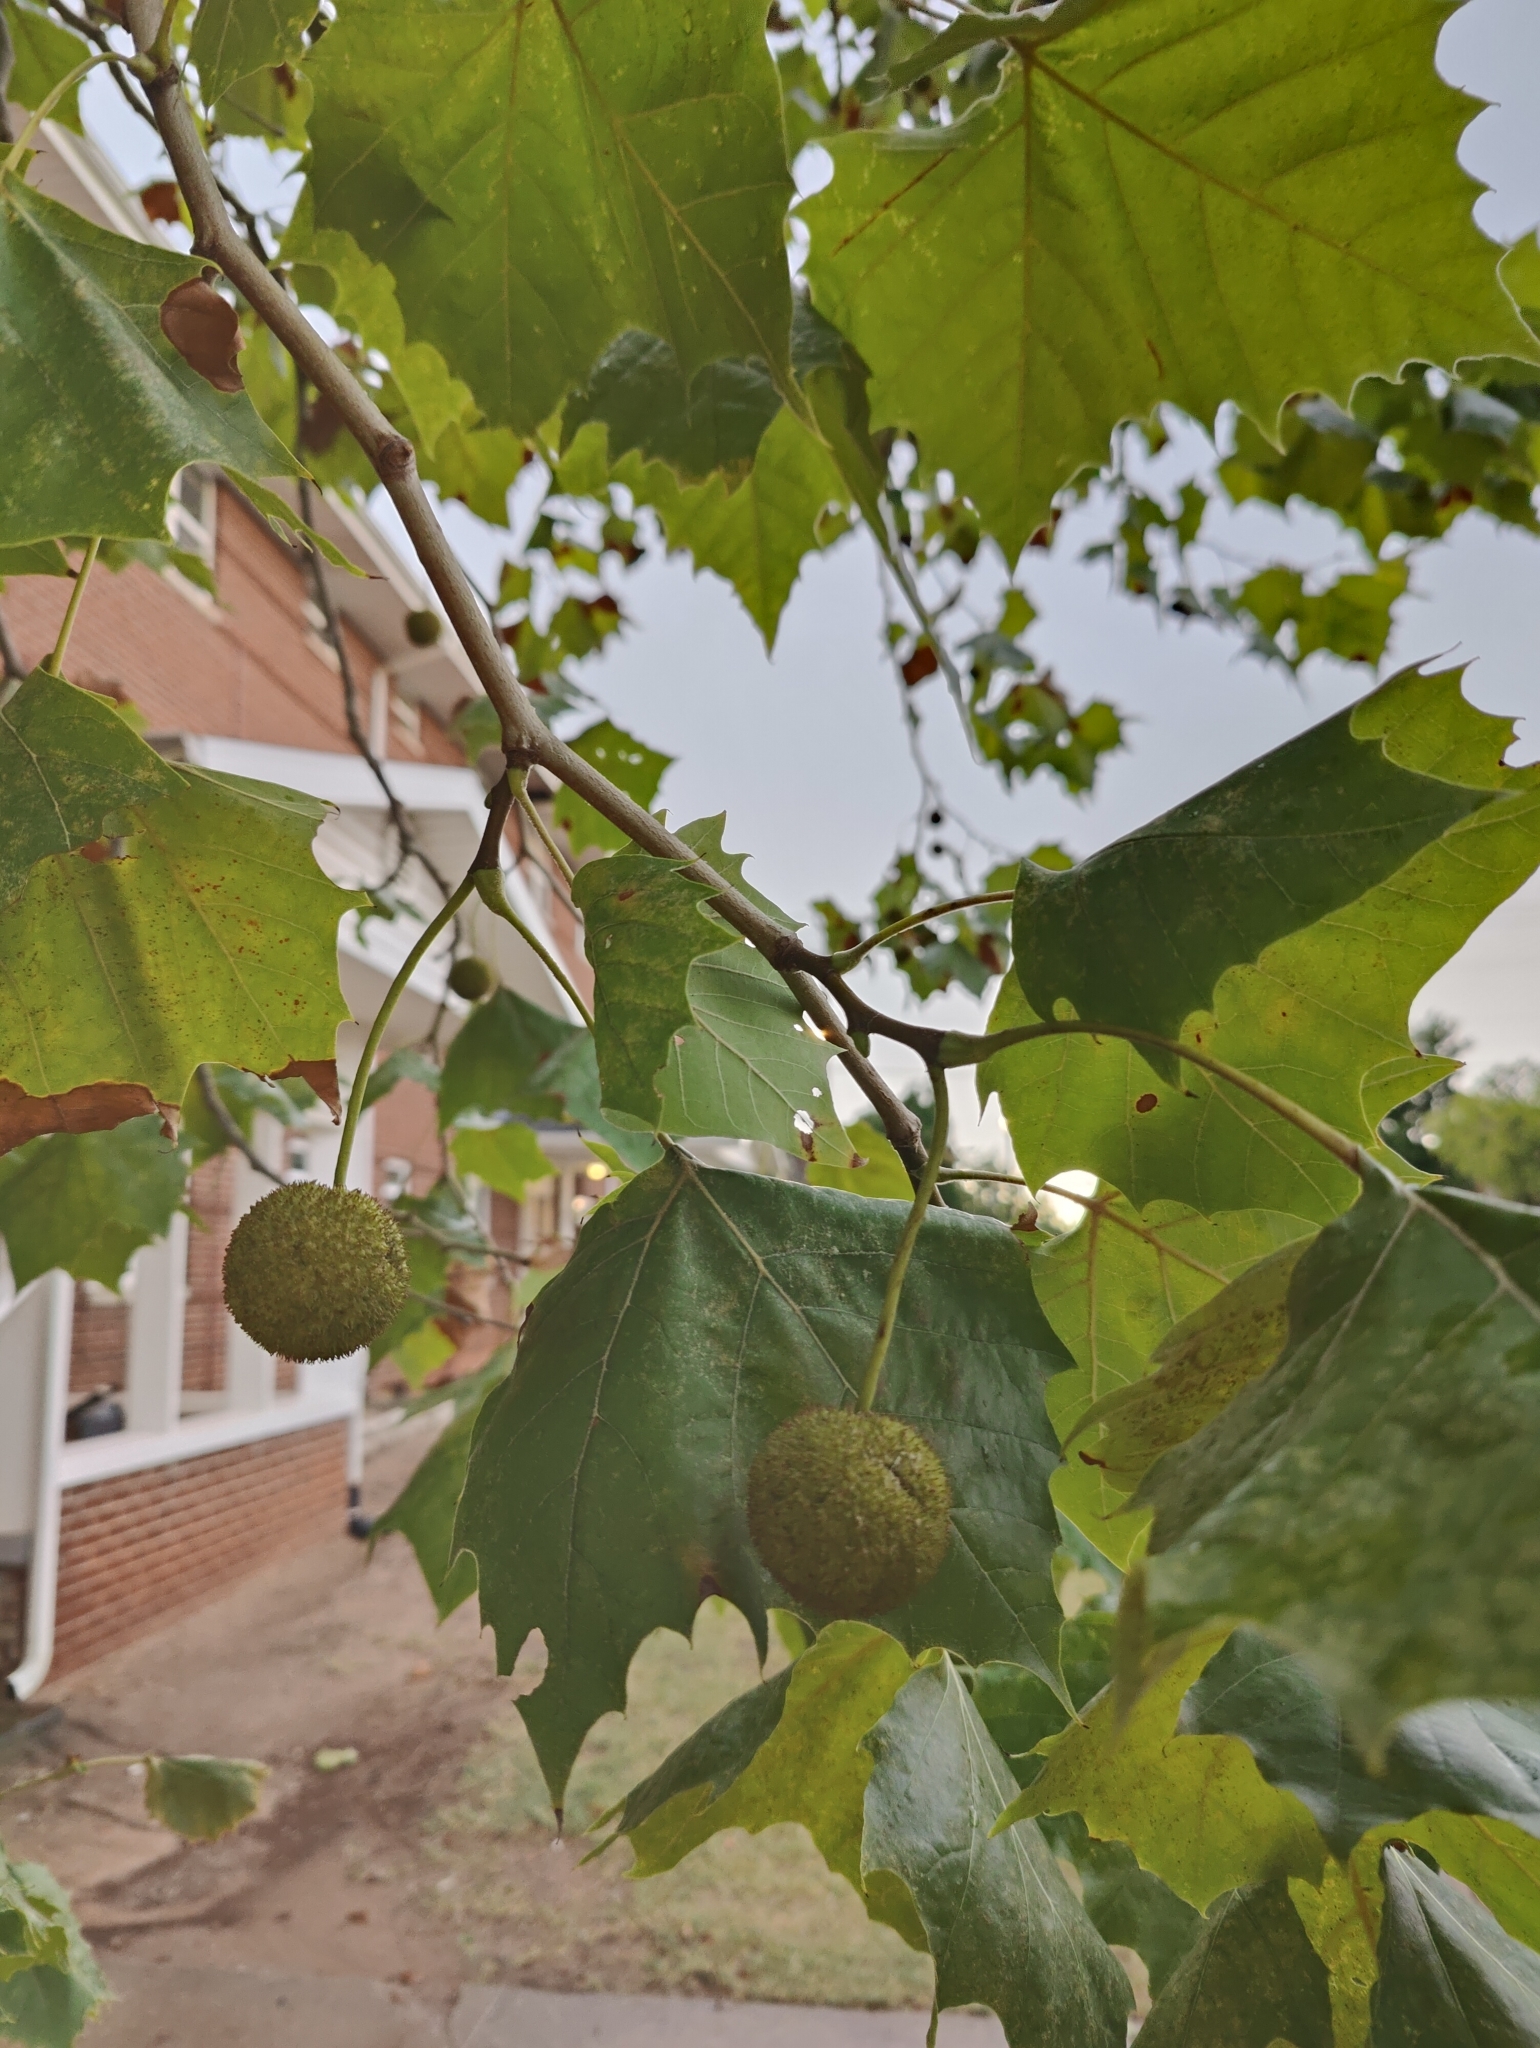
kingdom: Plantae
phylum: Tracheophyta
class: Magnoliopsida
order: Proteales
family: Platanaceae
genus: Platanus
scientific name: Platanus occidentalis
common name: American sycamore
